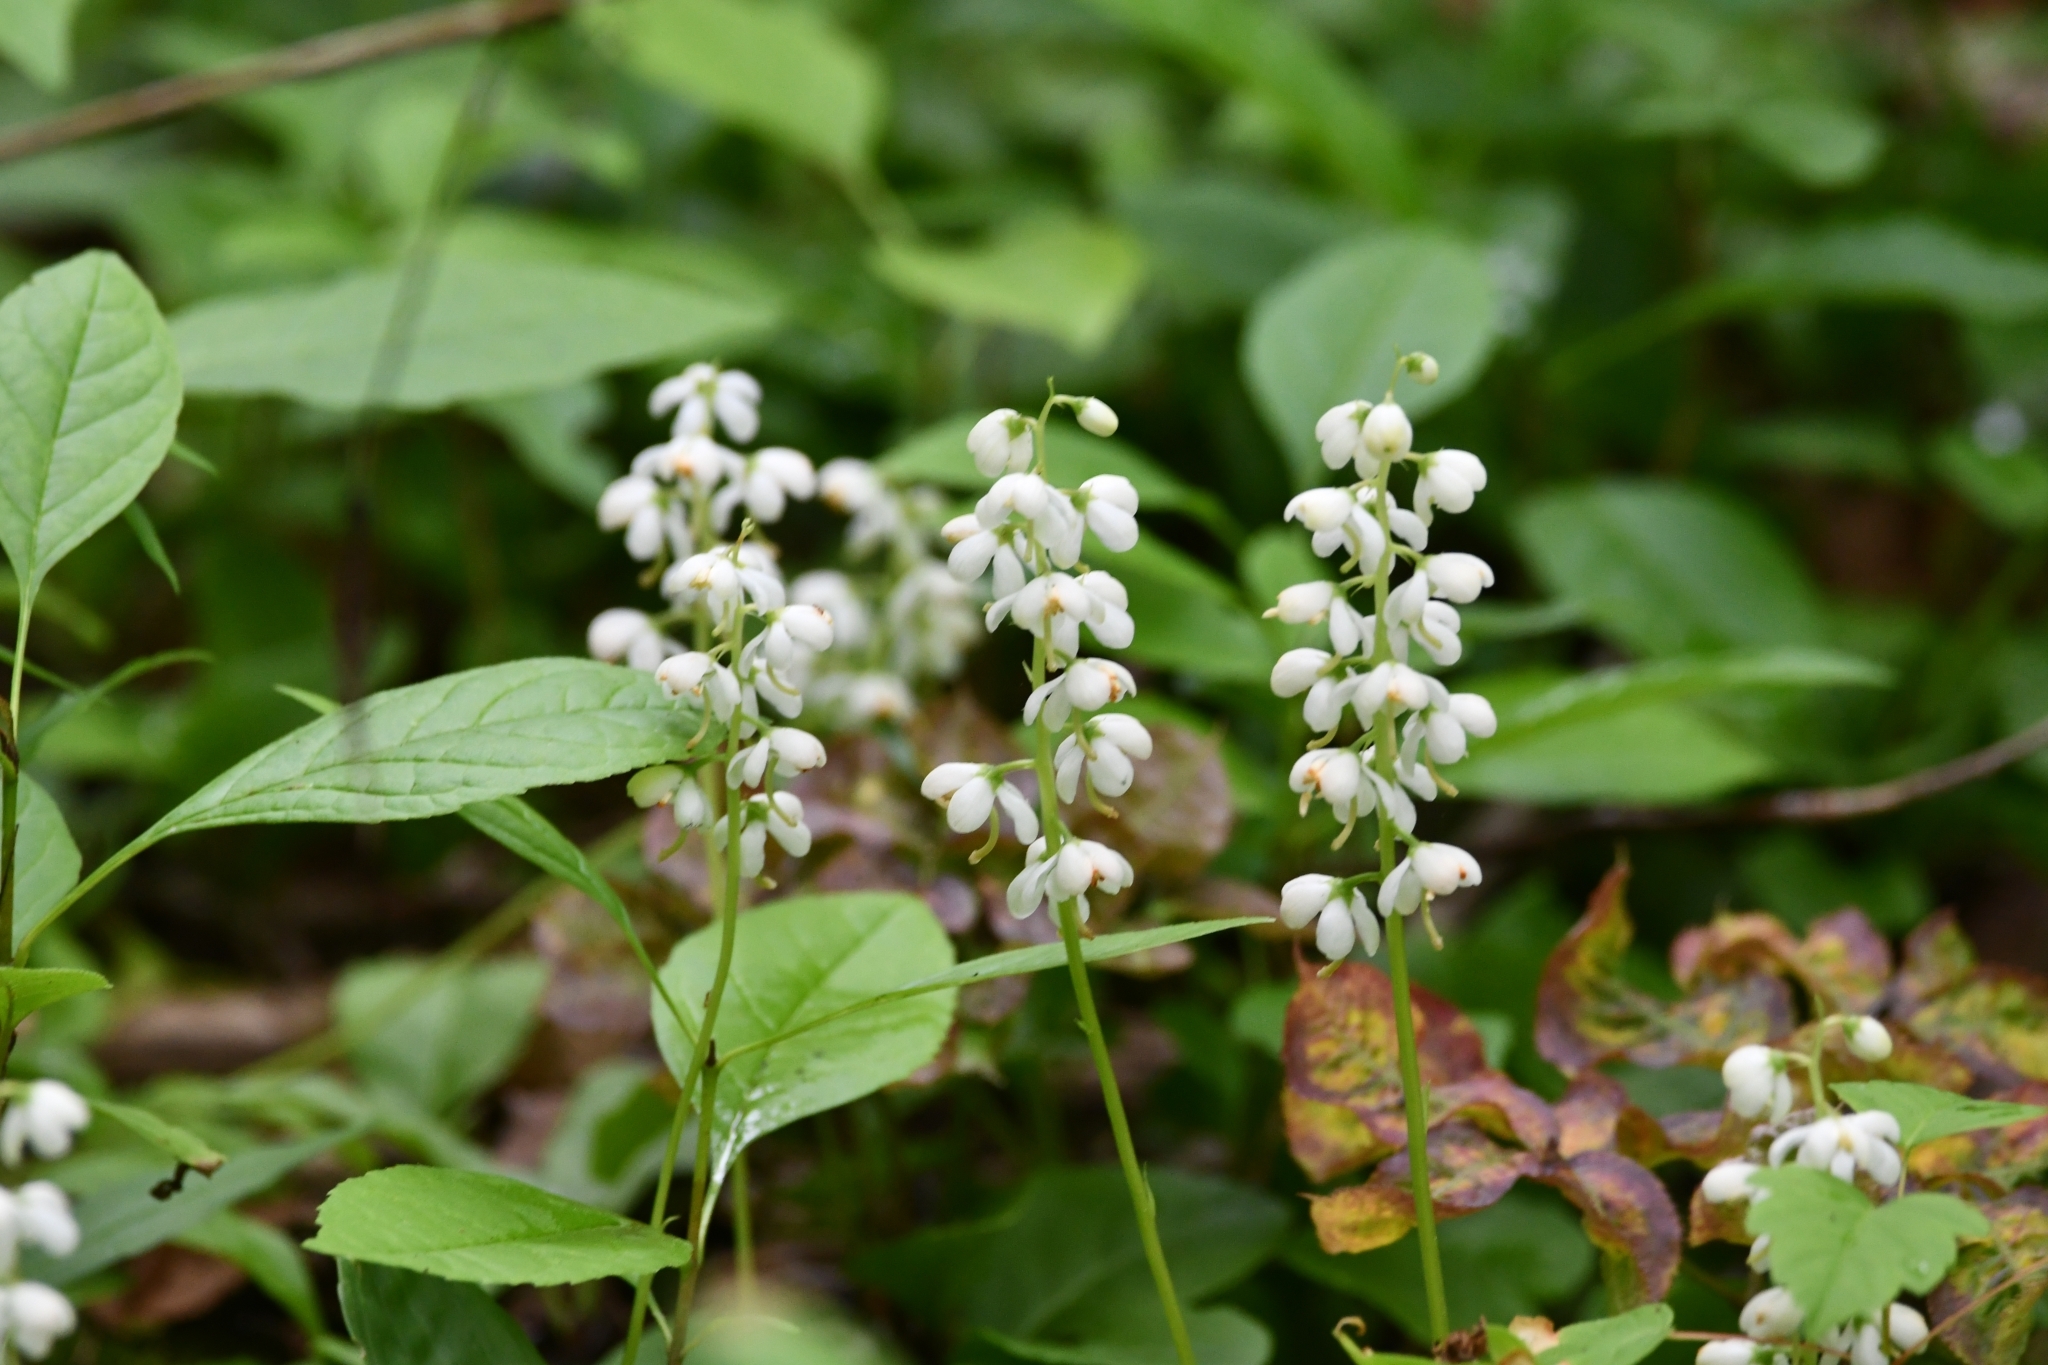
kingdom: Plantae
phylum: Tracheophyta
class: Magnoliopsida
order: Ericales
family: Ericaceae
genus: Pyrola
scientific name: Pyrola elliptica
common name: Shinleaf
